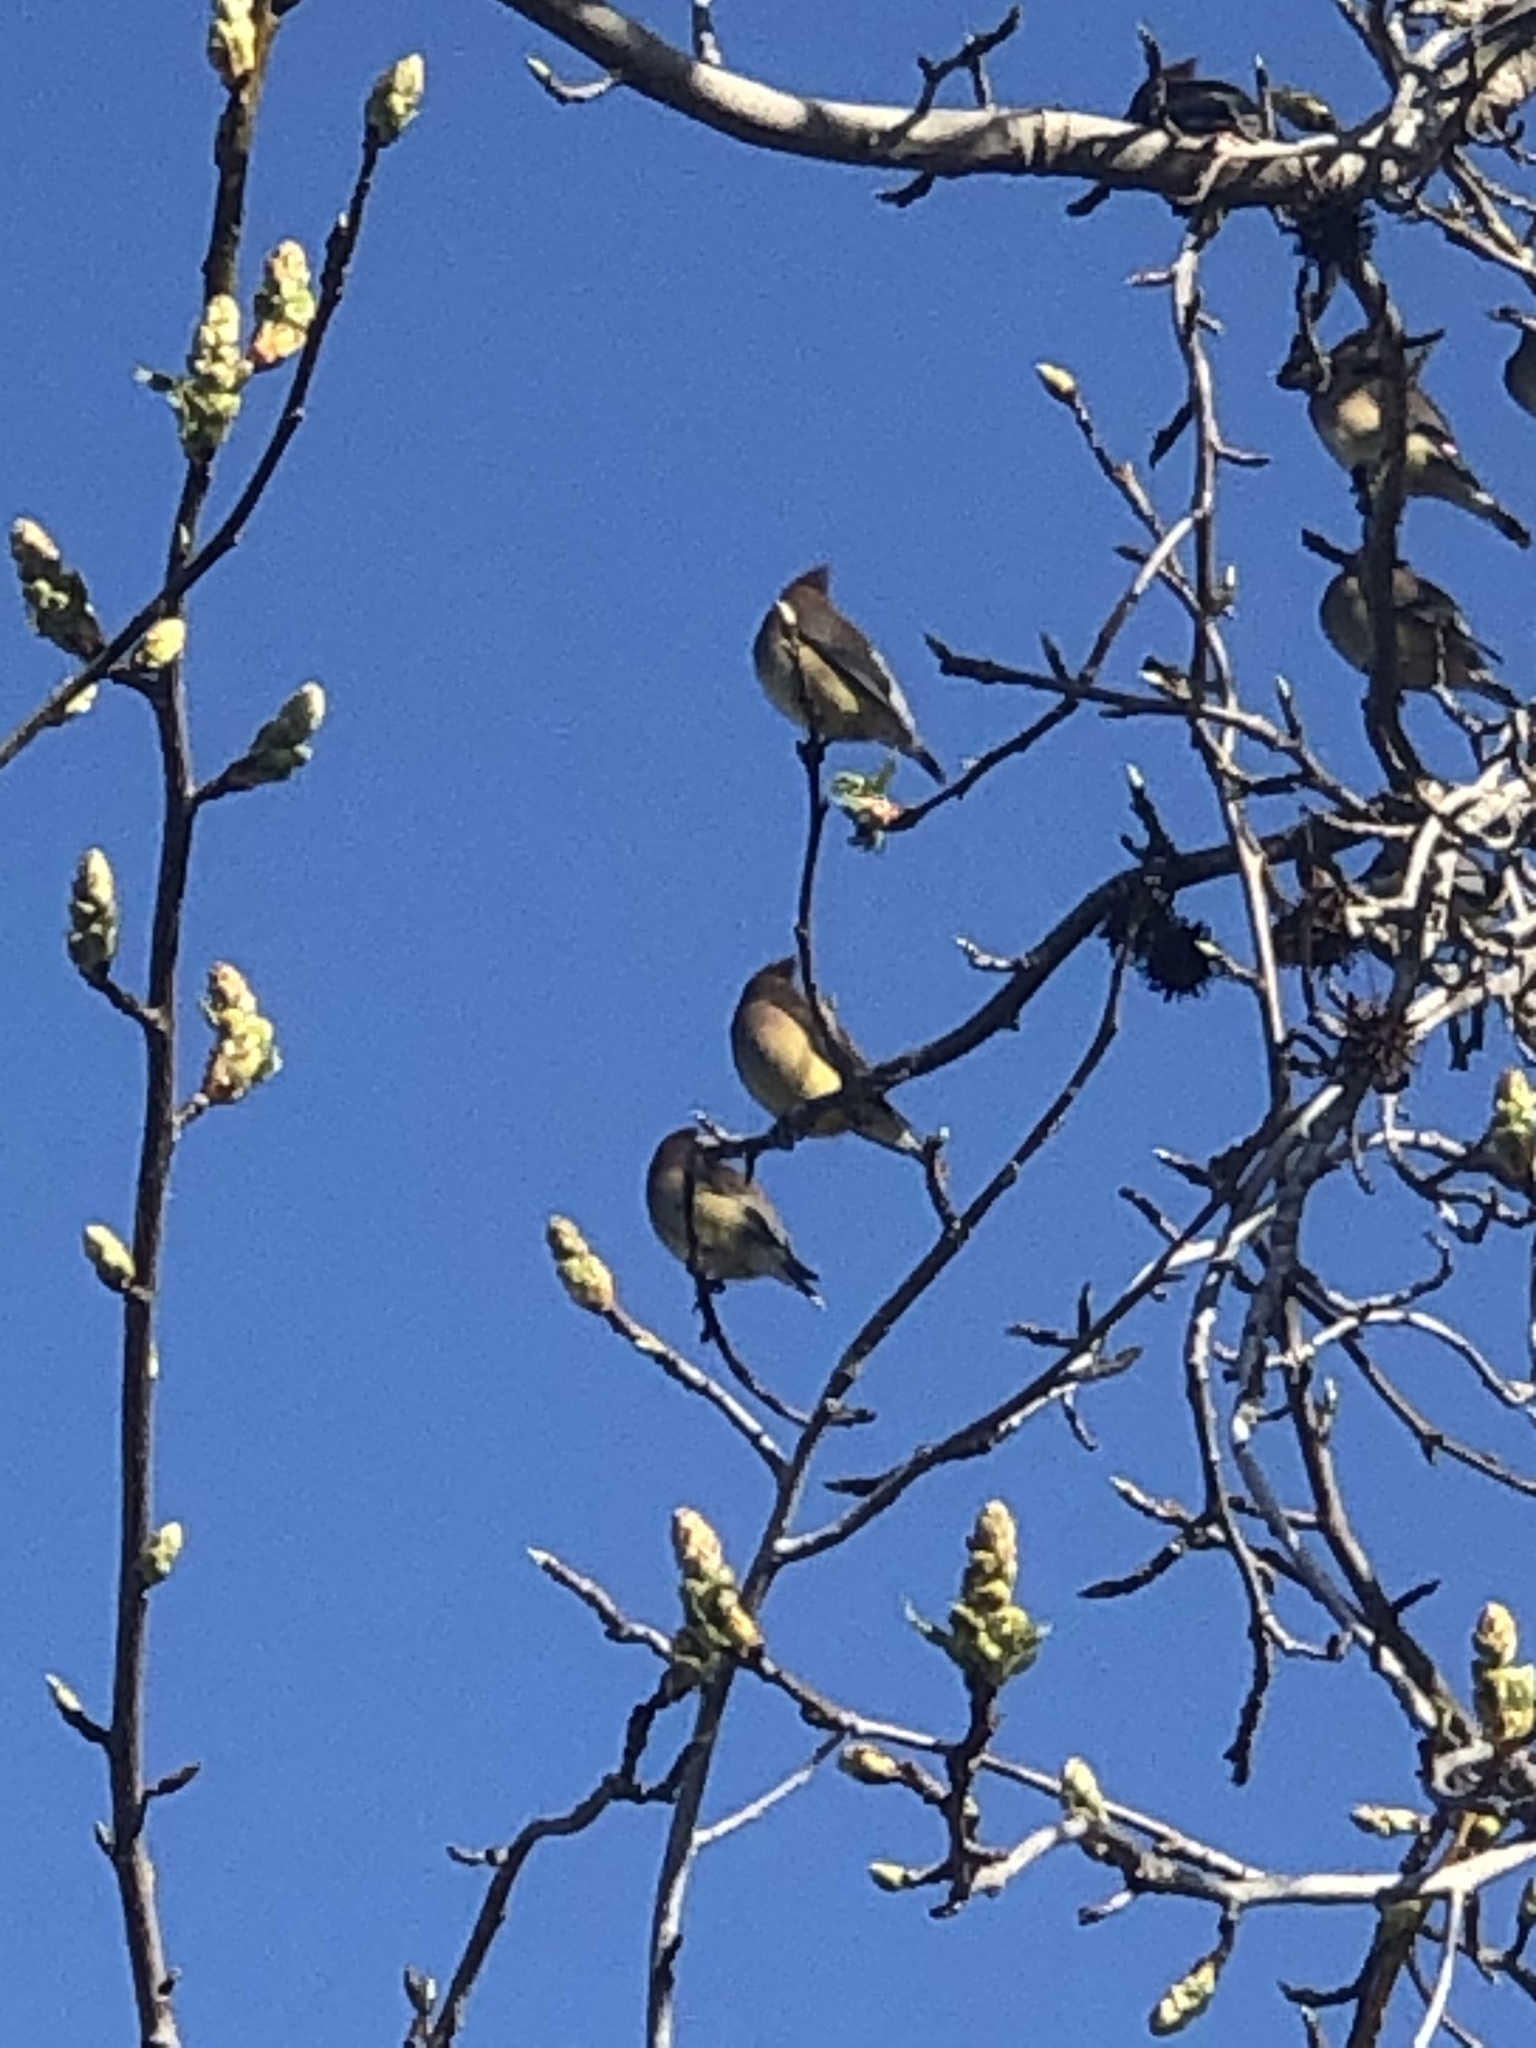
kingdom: Animalia
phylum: Chordata
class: Aves
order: Passeriformes
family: Bombycillidae
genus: Bombycilla
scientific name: Bombycilla cedrorum
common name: Cedar waxwing
